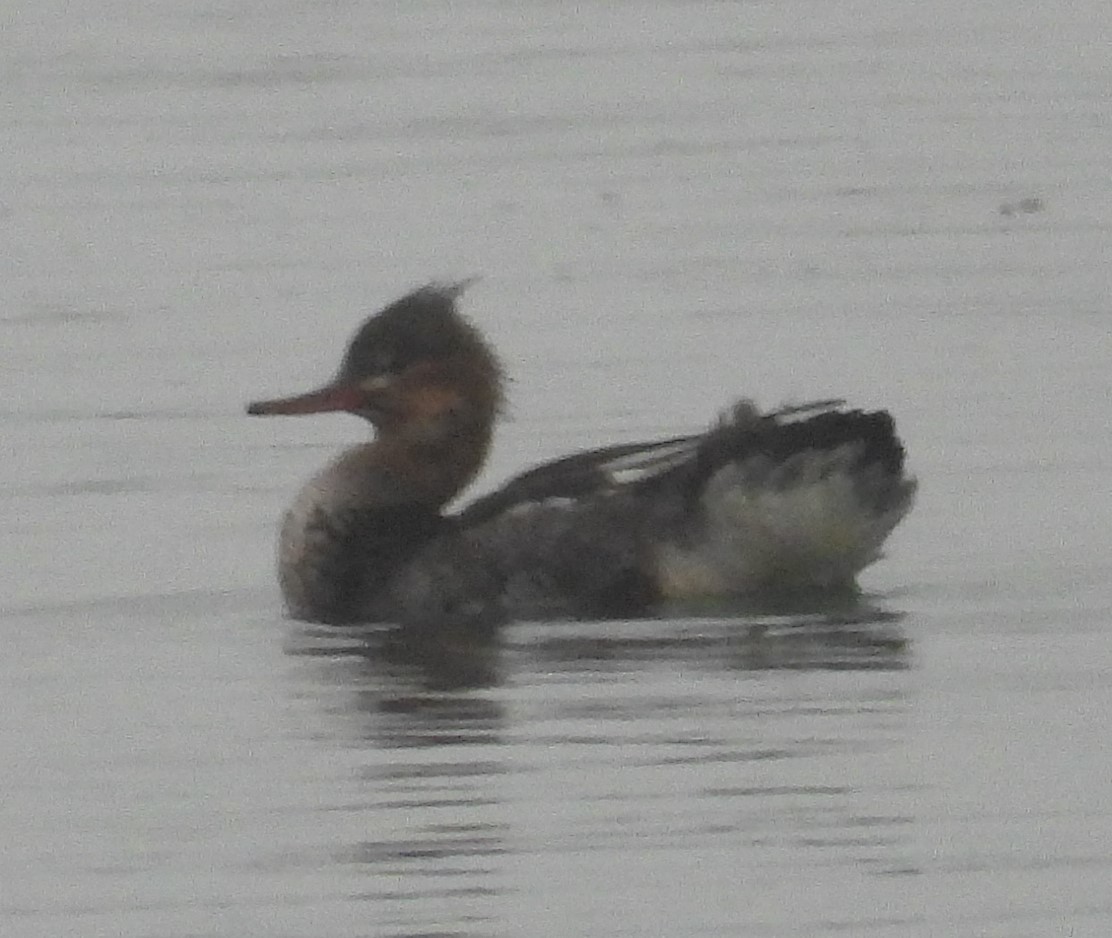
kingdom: Animalia
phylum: Chordata
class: Aves
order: Anseriformes
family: Anatidae
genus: Mergus
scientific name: Mergus serrator
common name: Red-breasted merganser
